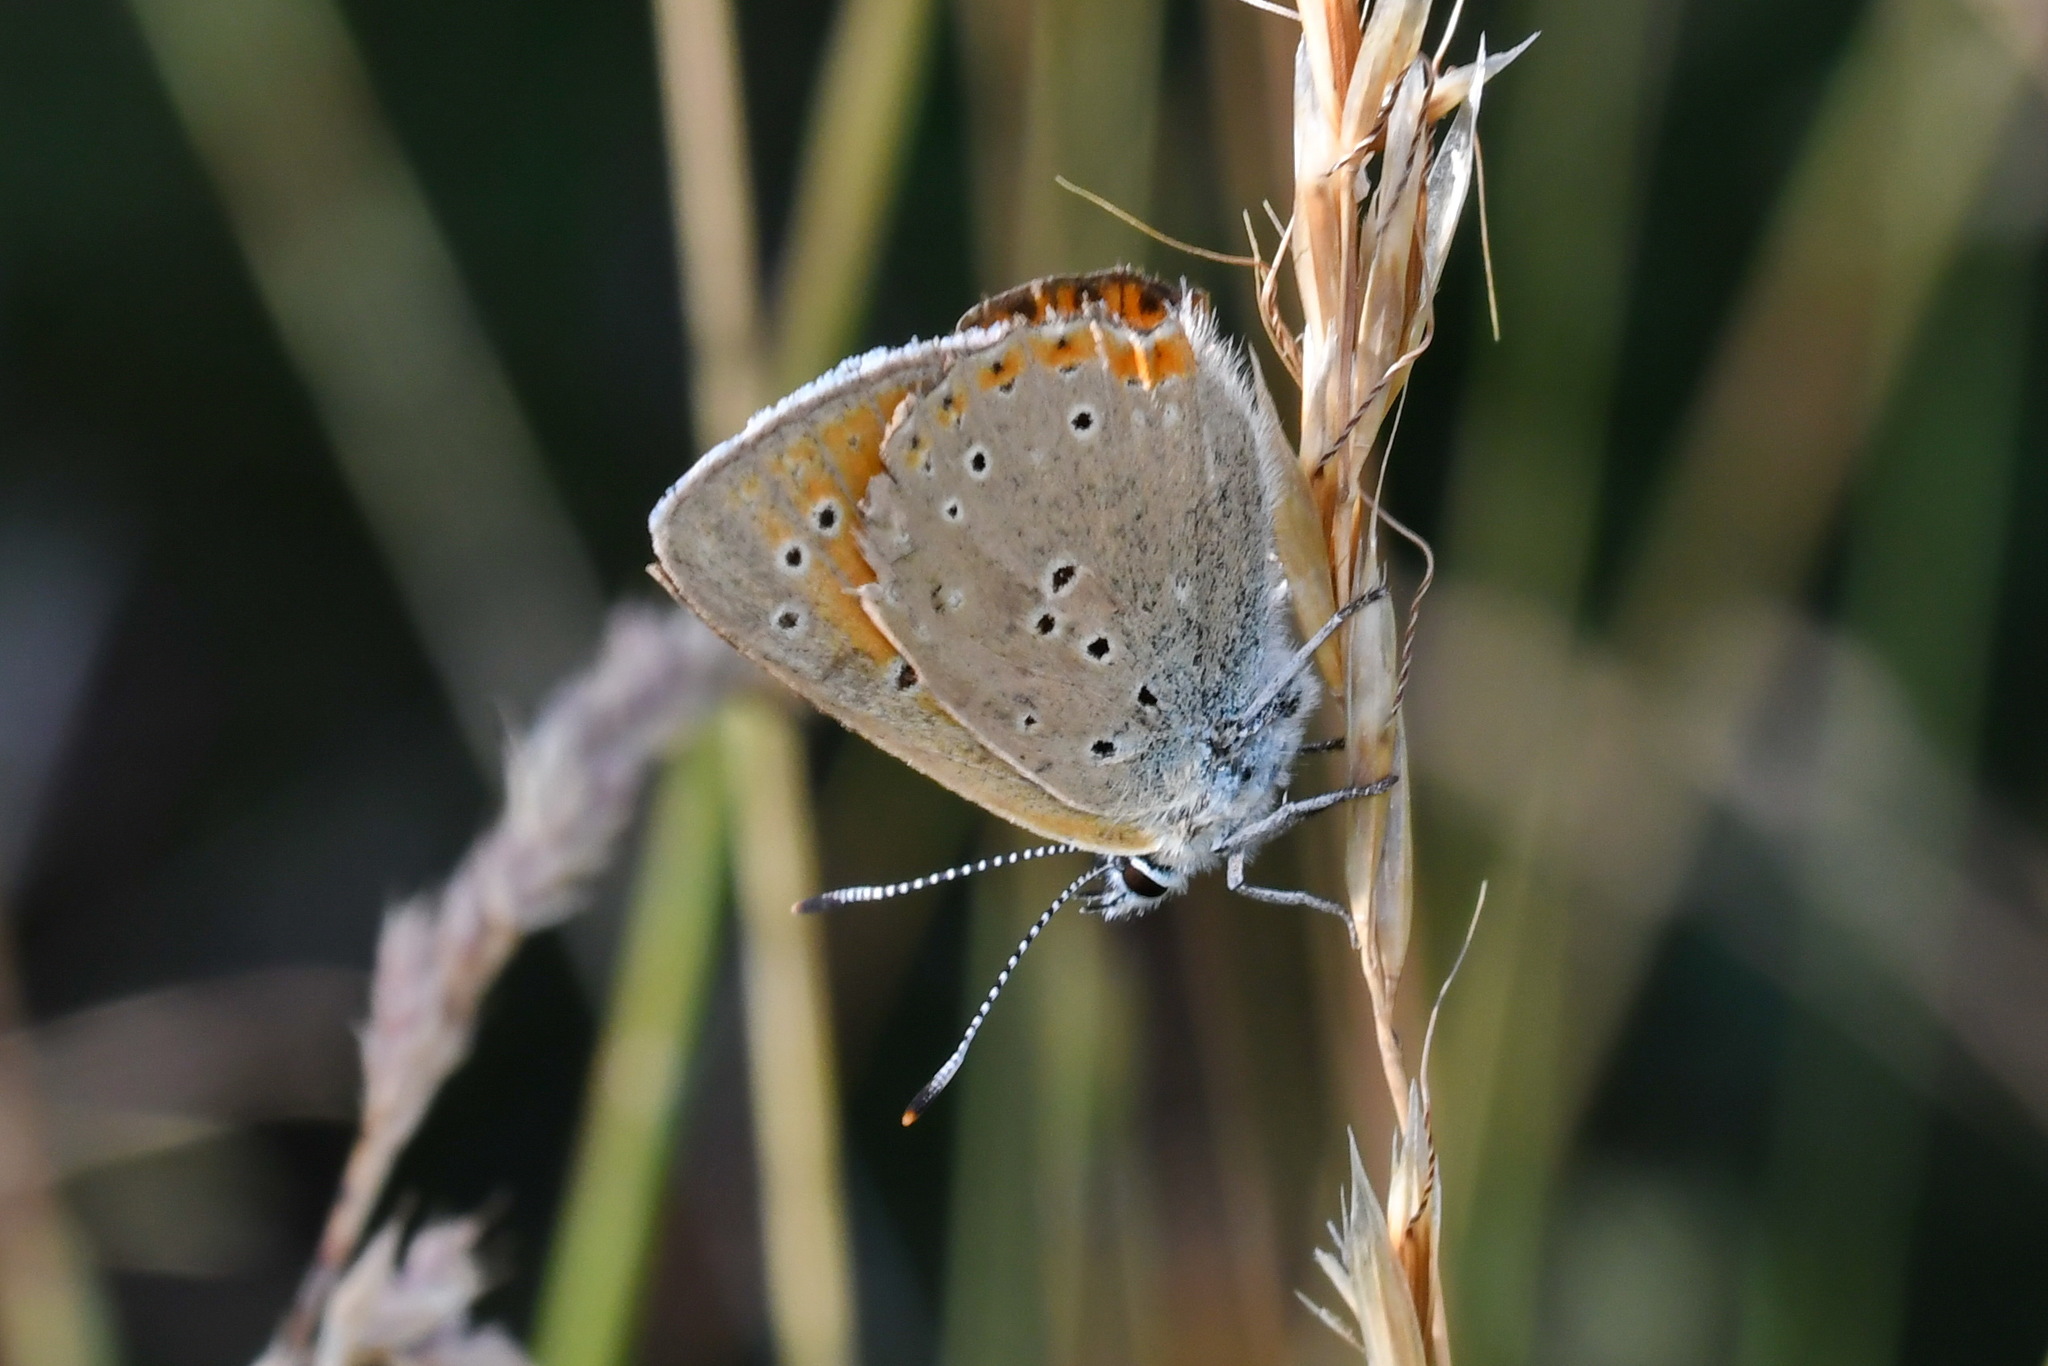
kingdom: Animalia
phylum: Arthropoda
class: Insecta
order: Lepidoptera
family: Lycaenidae
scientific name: Lycaenidae
